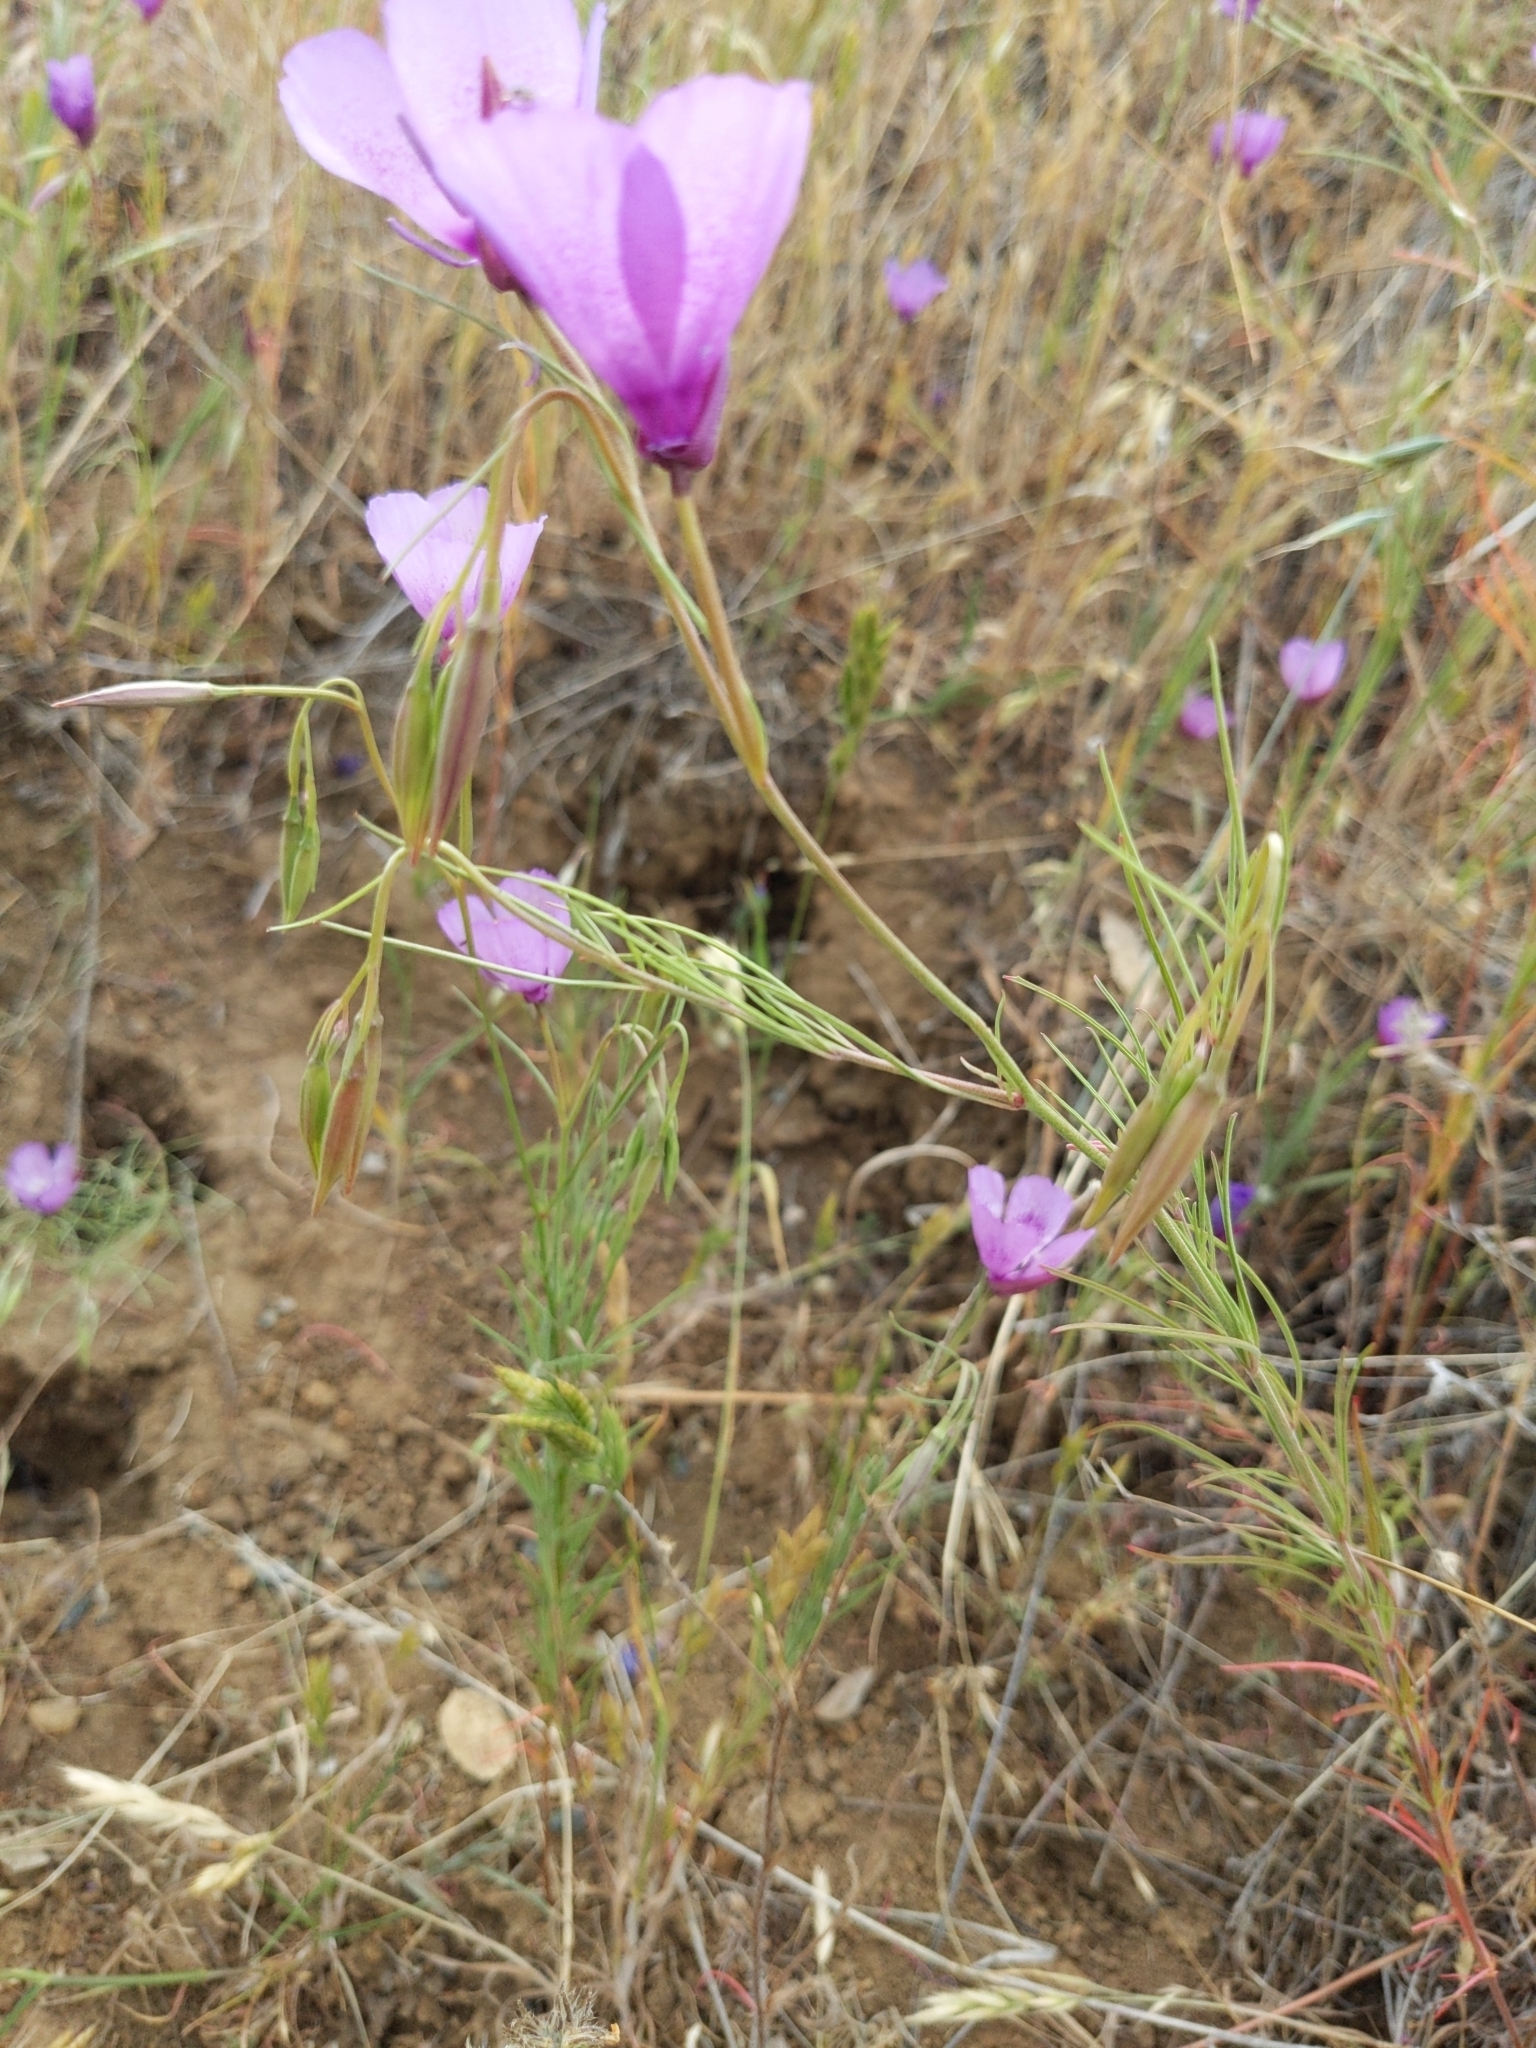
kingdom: Plantae
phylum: Tracheophyta
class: Magnoliopsida
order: Myrtales
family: Onagraceae
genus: Clarkia
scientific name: Clarkia cylindrica
